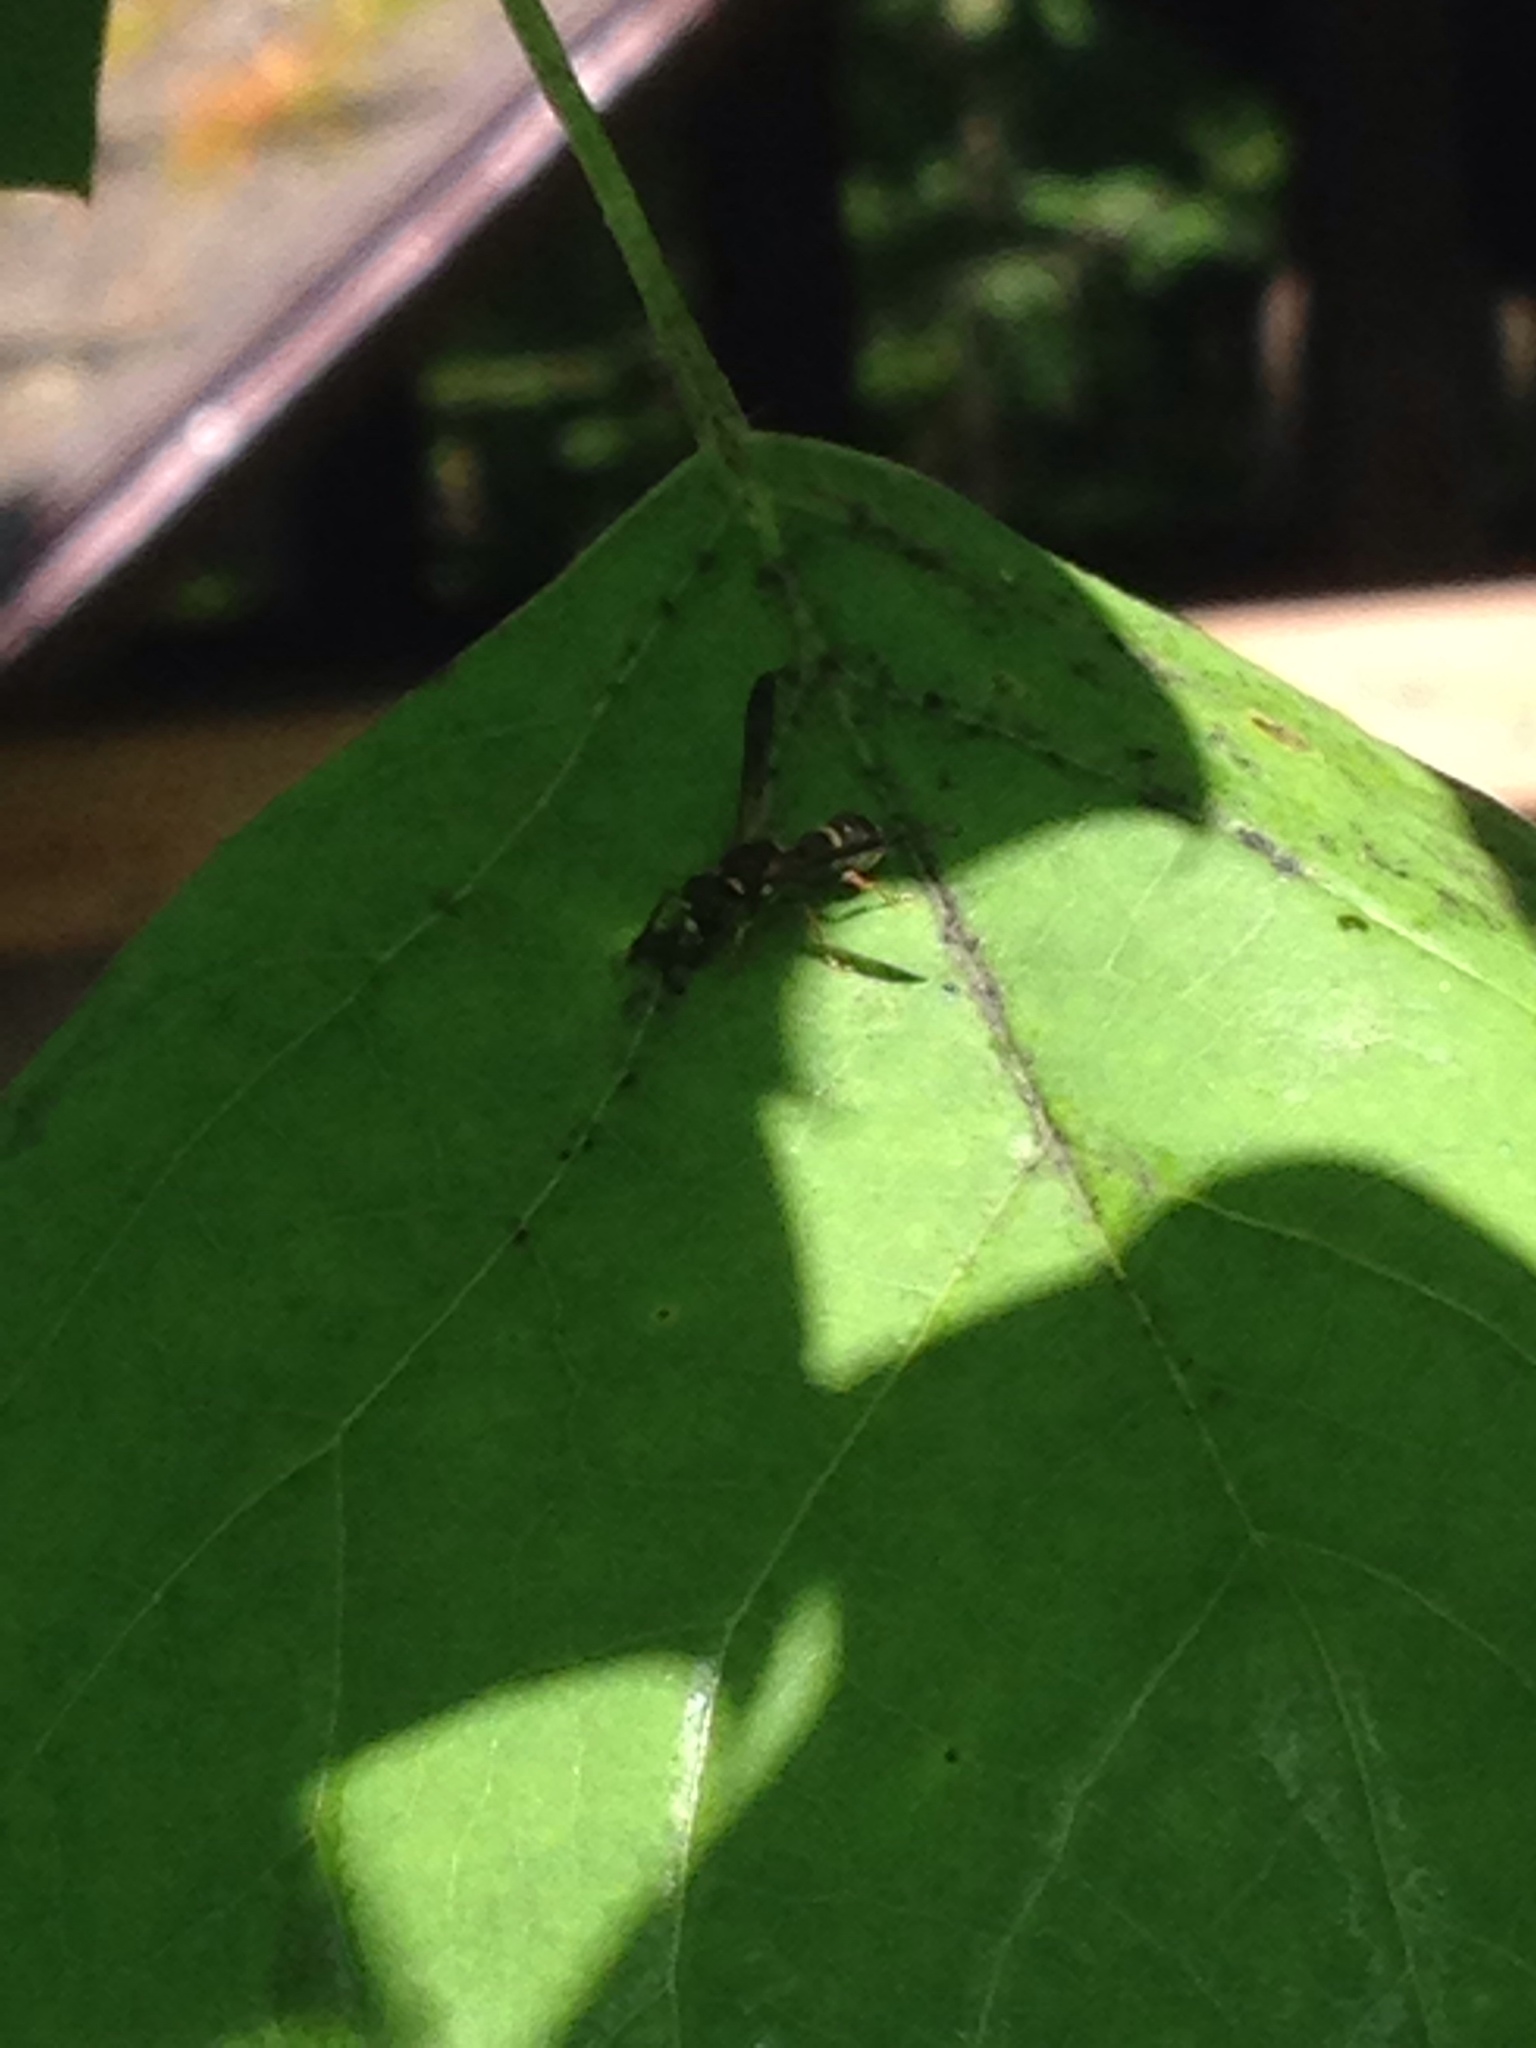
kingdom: Animalia
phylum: Arthropoda
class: Insecta
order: Hymenoptera
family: Eumenidae
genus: Parancistrocerus
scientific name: Parancistrocerus perennis
